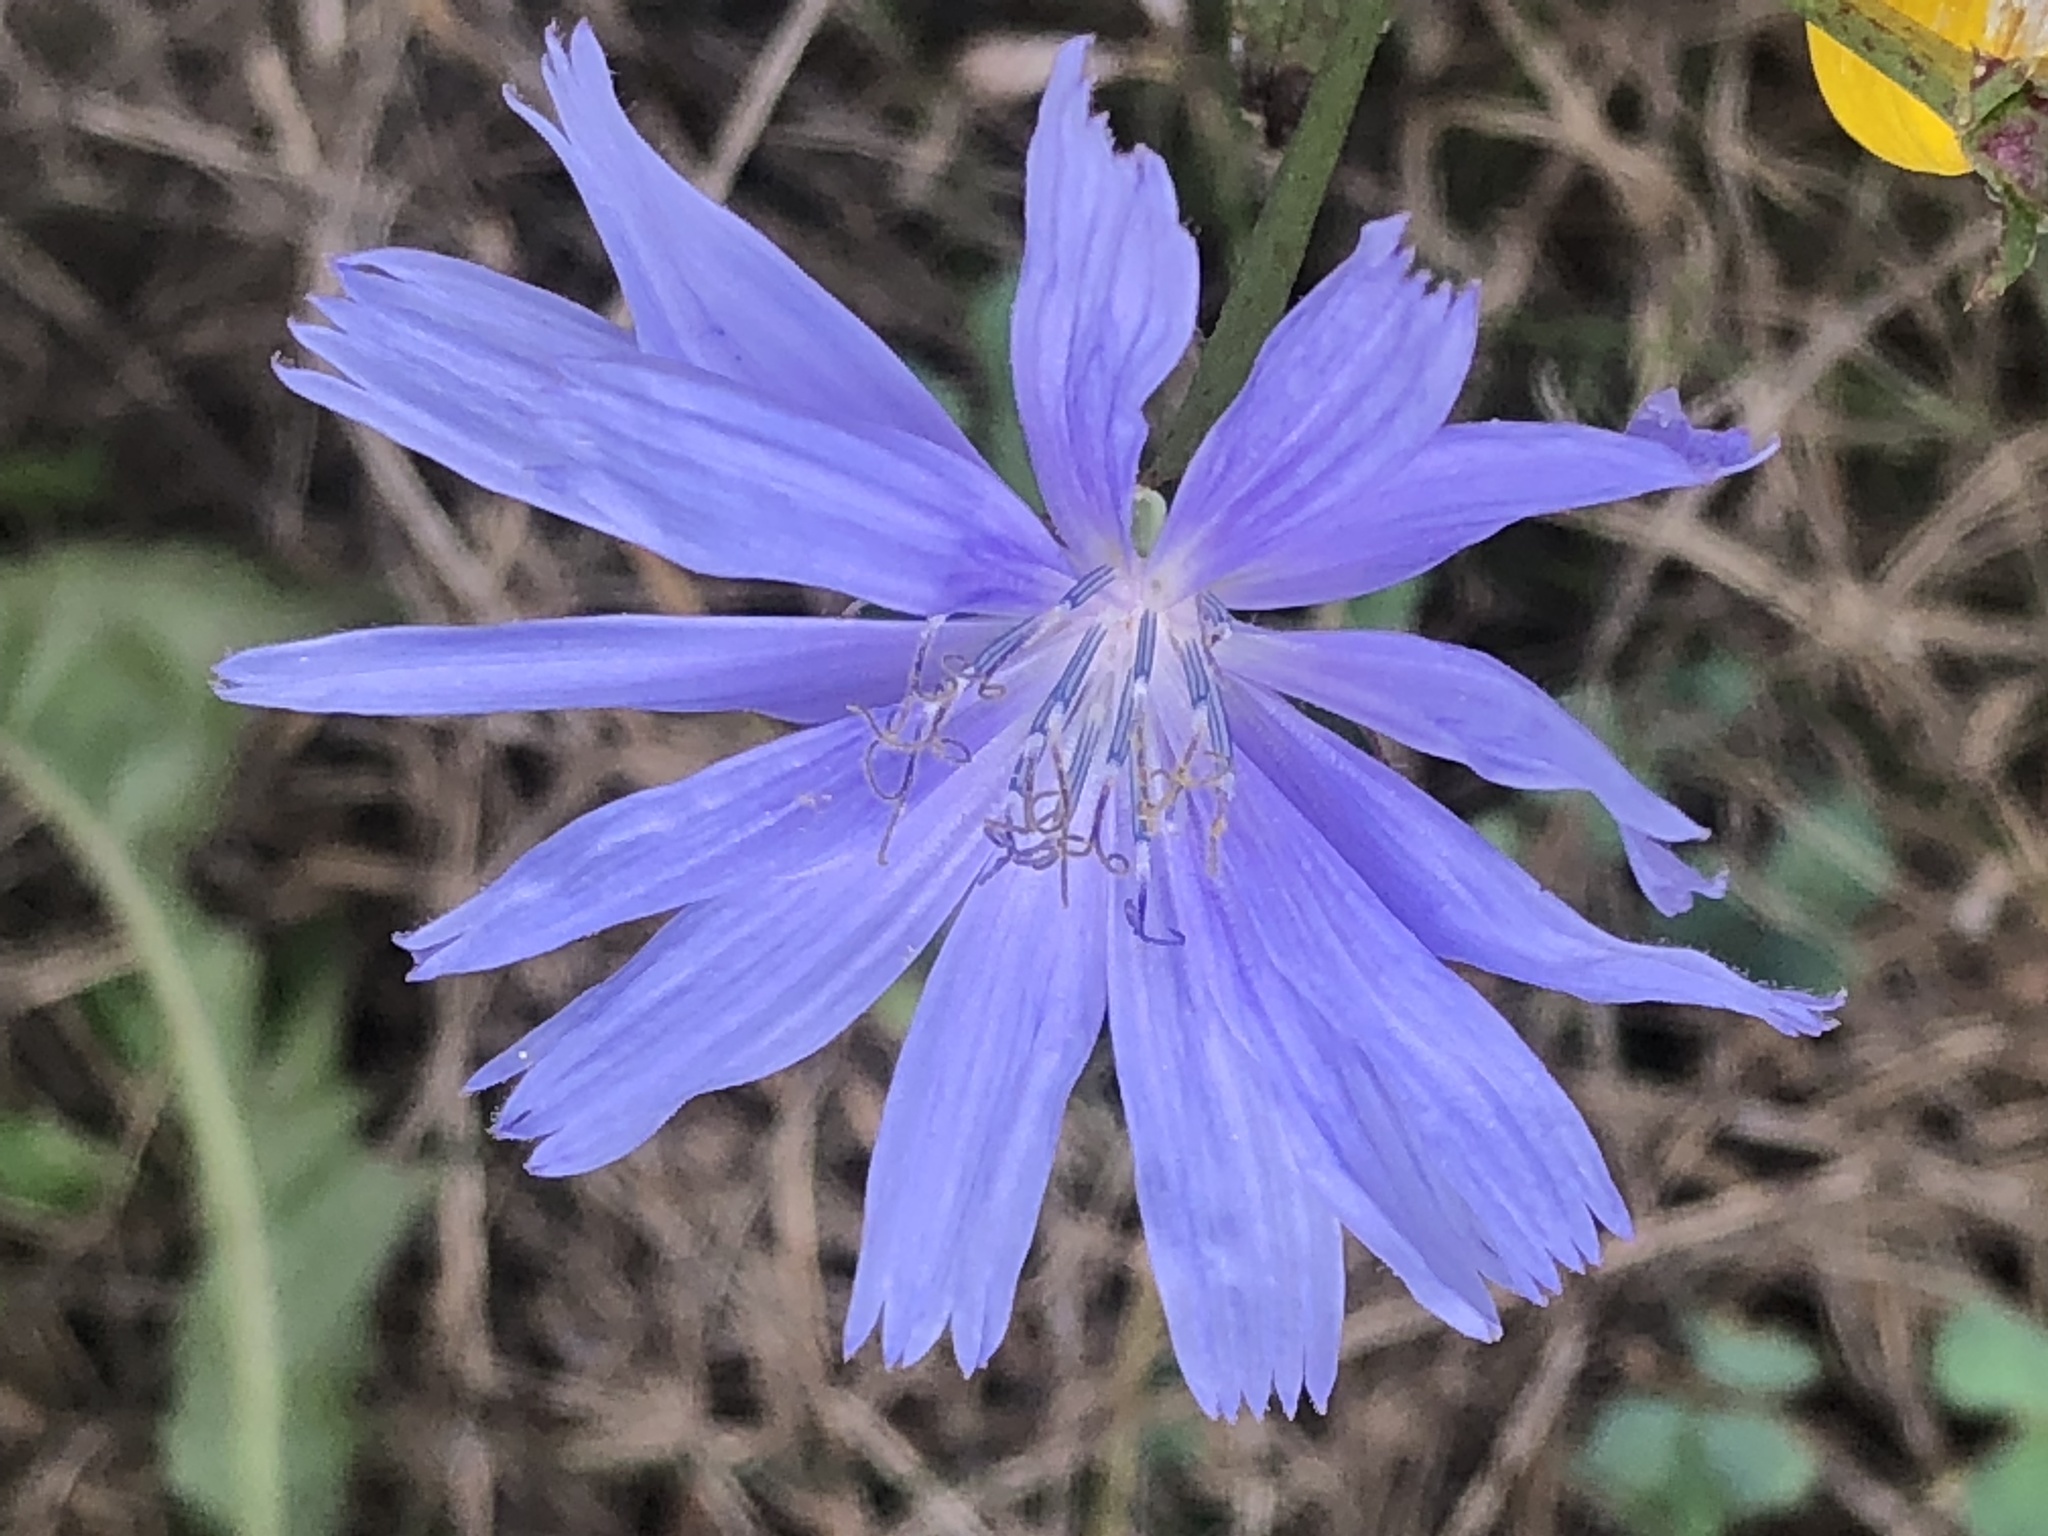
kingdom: Plantae
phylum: Tracheophyta
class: Magnoliopsida
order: Asterales
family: Asteraceae
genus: Cichorium
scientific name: Cichorium intybus
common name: Chicory
